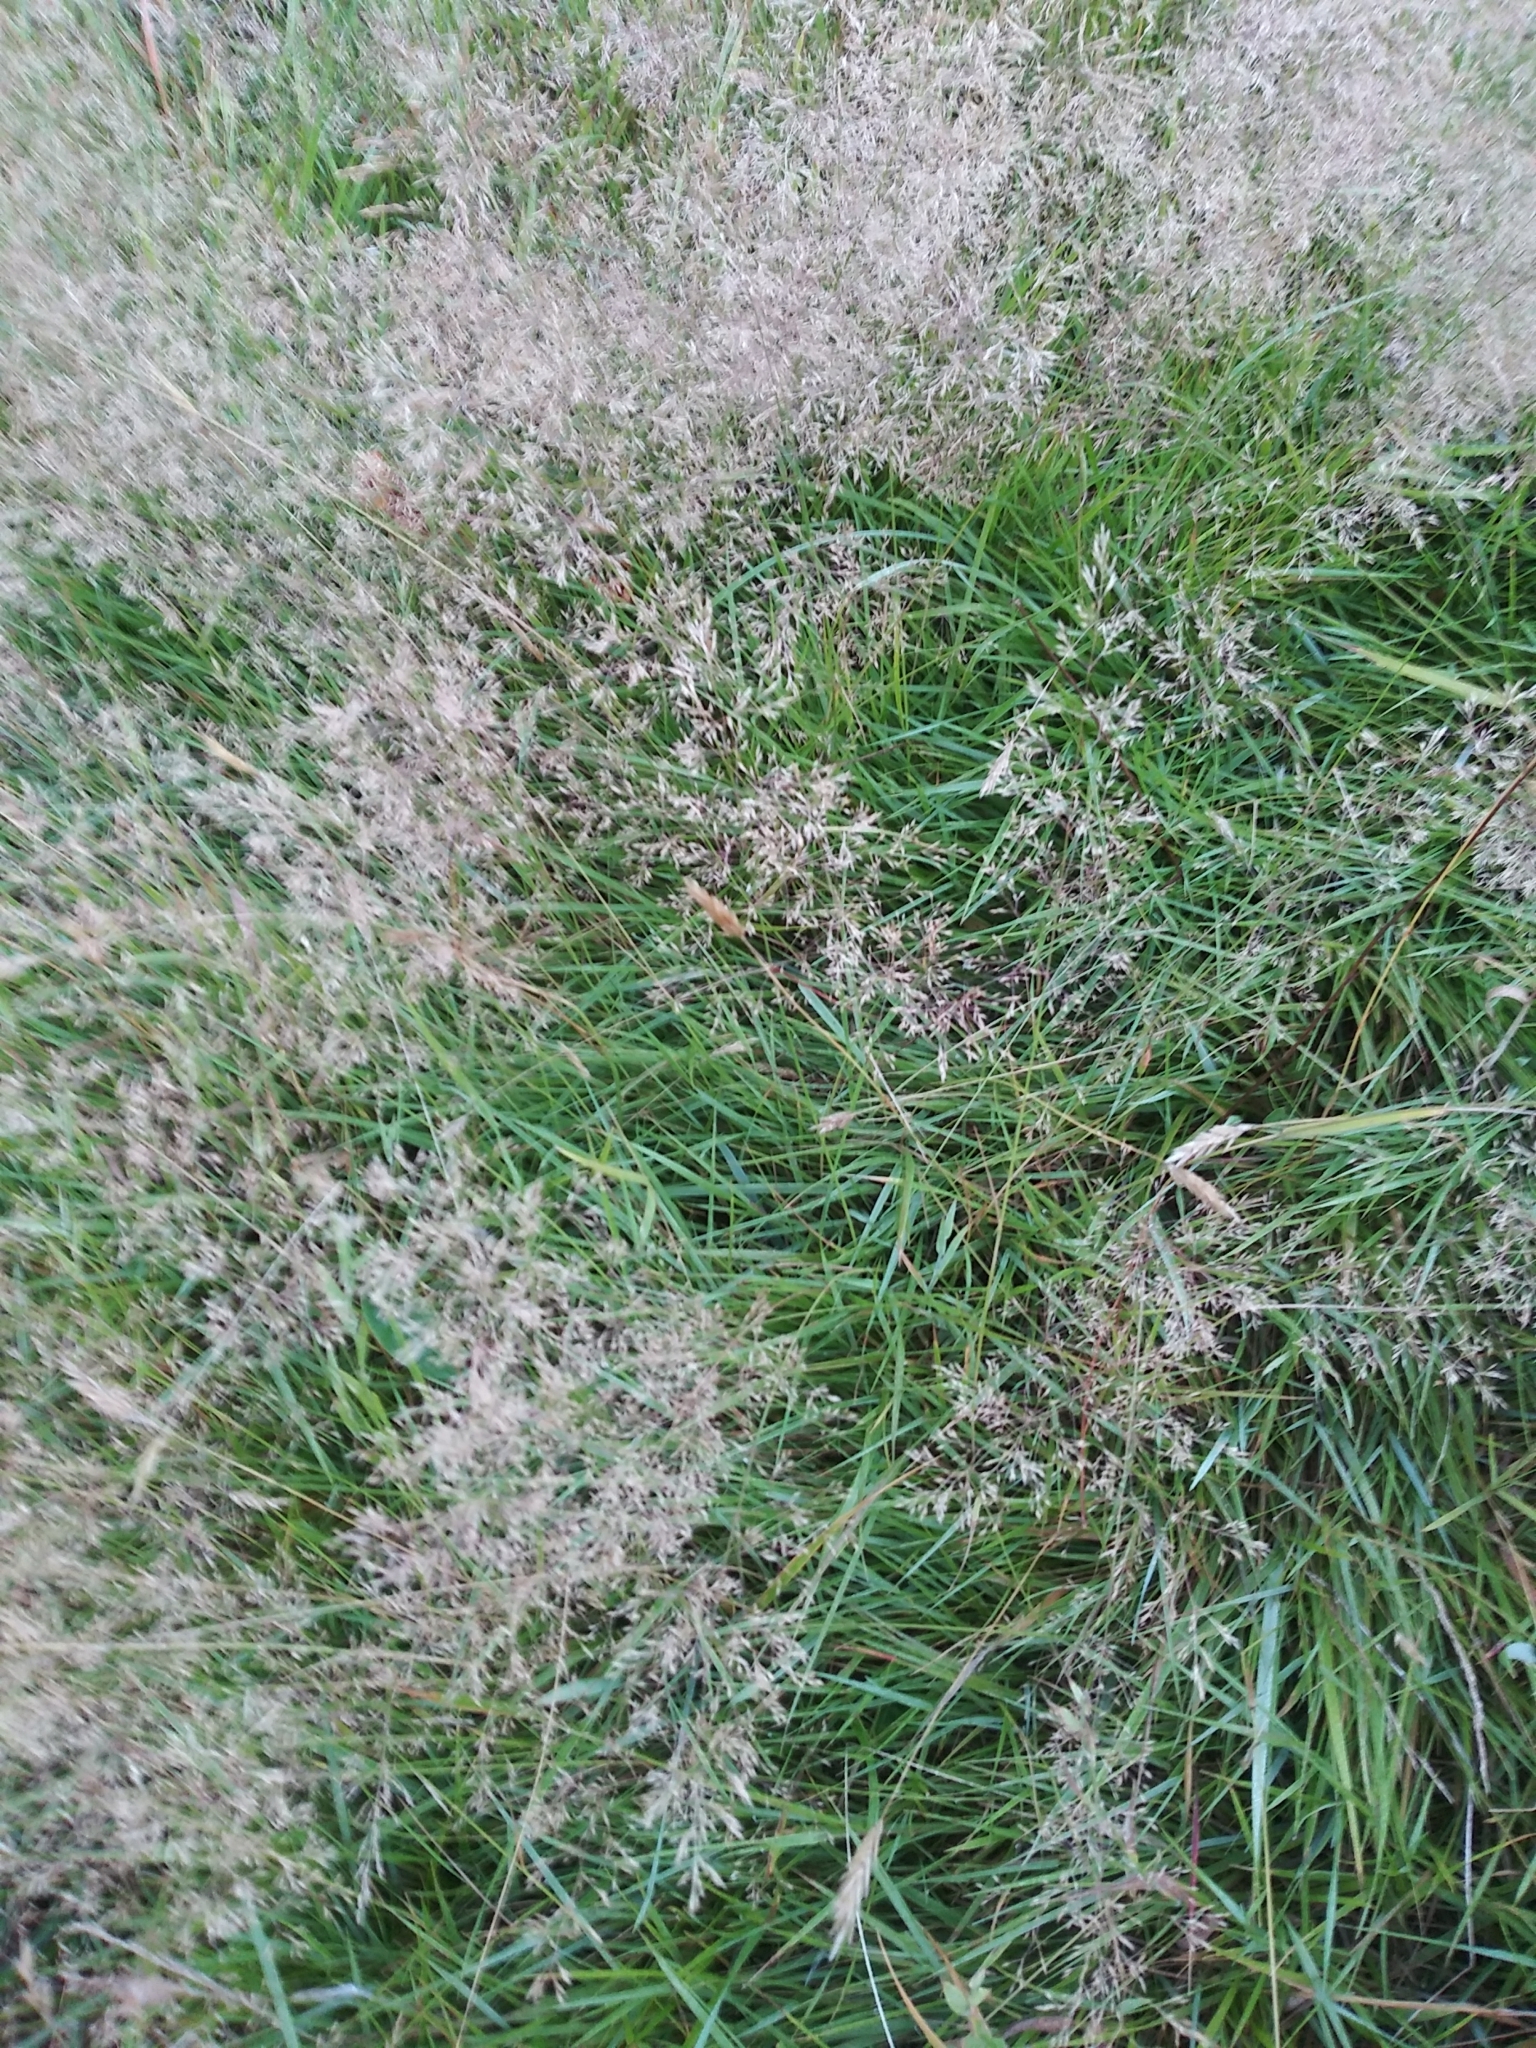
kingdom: Plantae
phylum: Tracheophyta
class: Liliopsida
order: Poales
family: Poaceae
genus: Agrostis
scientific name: Agrostis capillaris
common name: Colonial bentgrass
